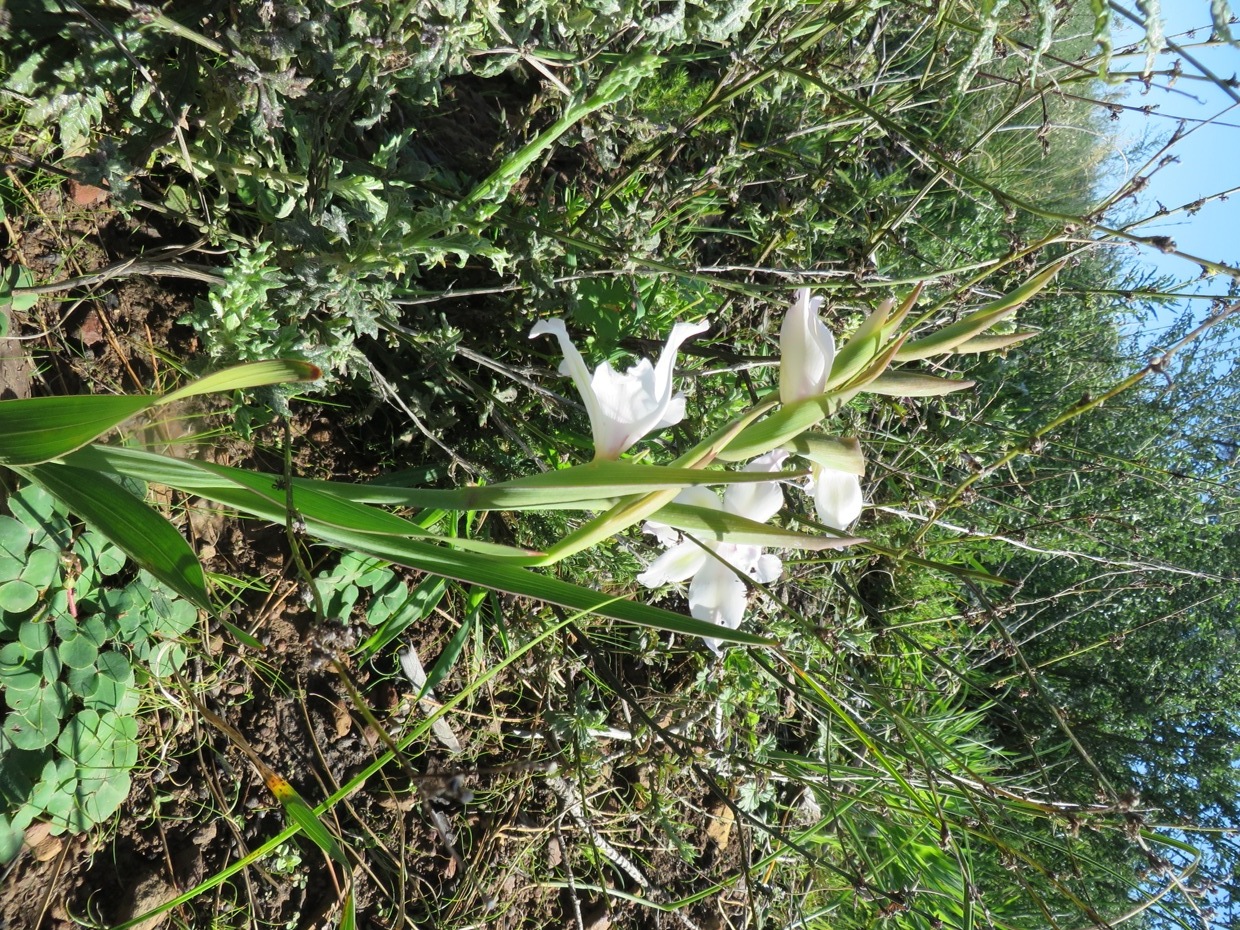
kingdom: Plantae
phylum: Tracheophyta
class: Liliopsida
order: Asparagales
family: Iridaceae
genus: Gladiolus
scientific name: Gladiolus carneus
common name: Painted-lady
